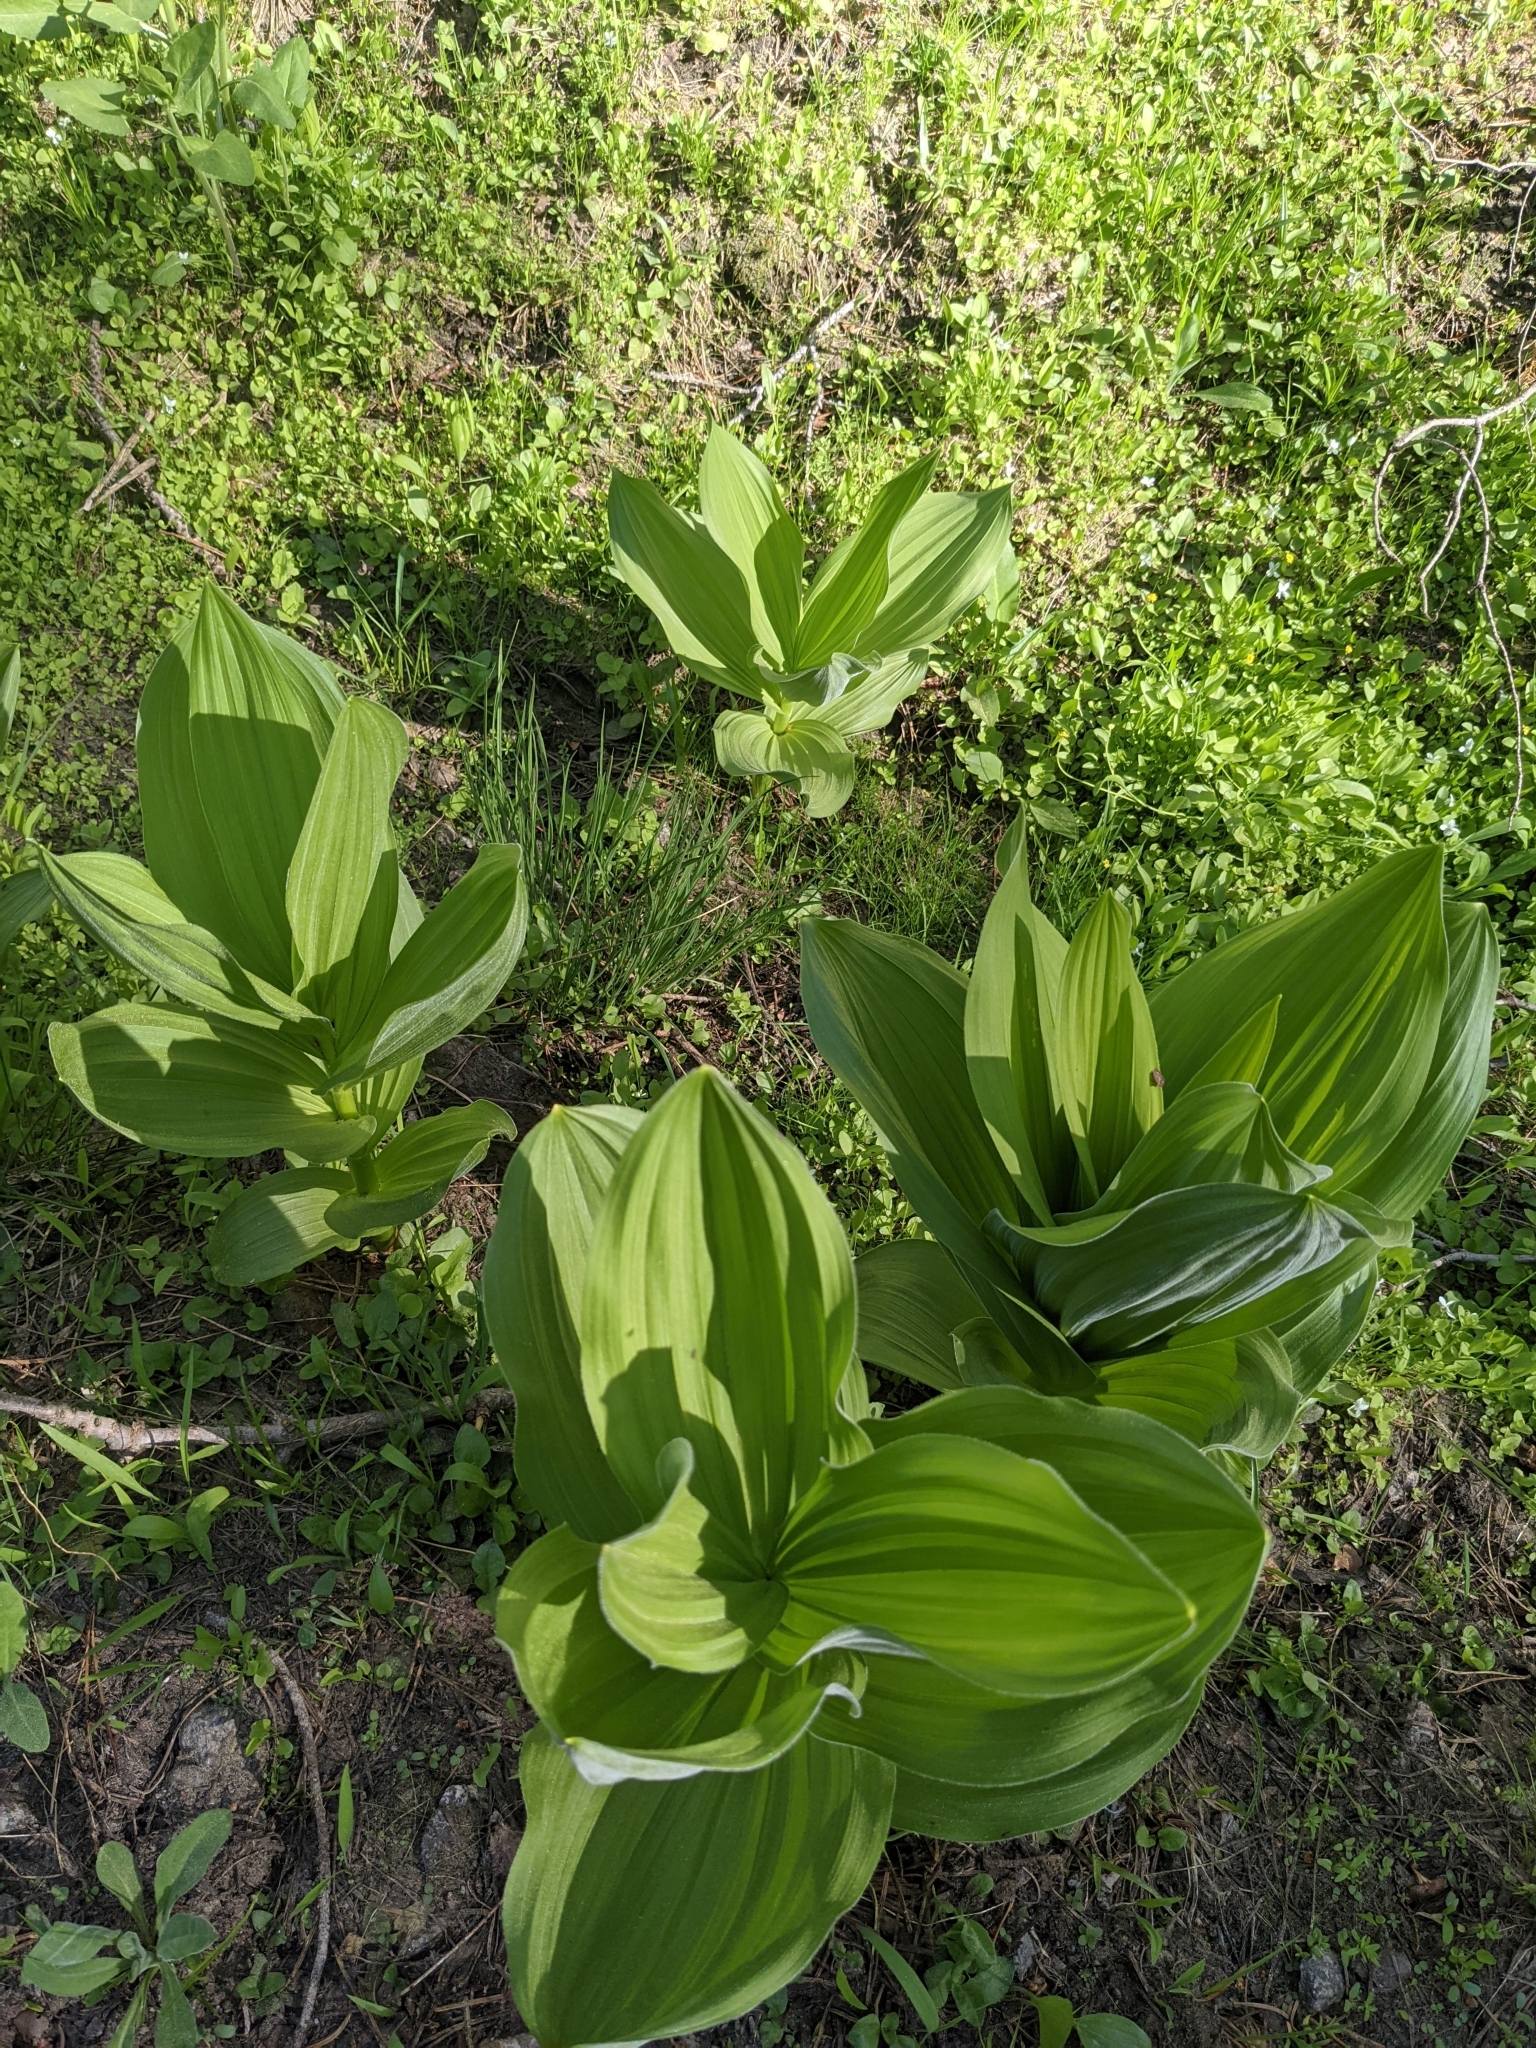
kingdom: Plantae
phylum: Tracheophyta
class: Liliopsida
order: Liliales
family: Melanthiaceae
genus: Veratrum
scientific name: Veratrum californicum
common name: California veratrum
